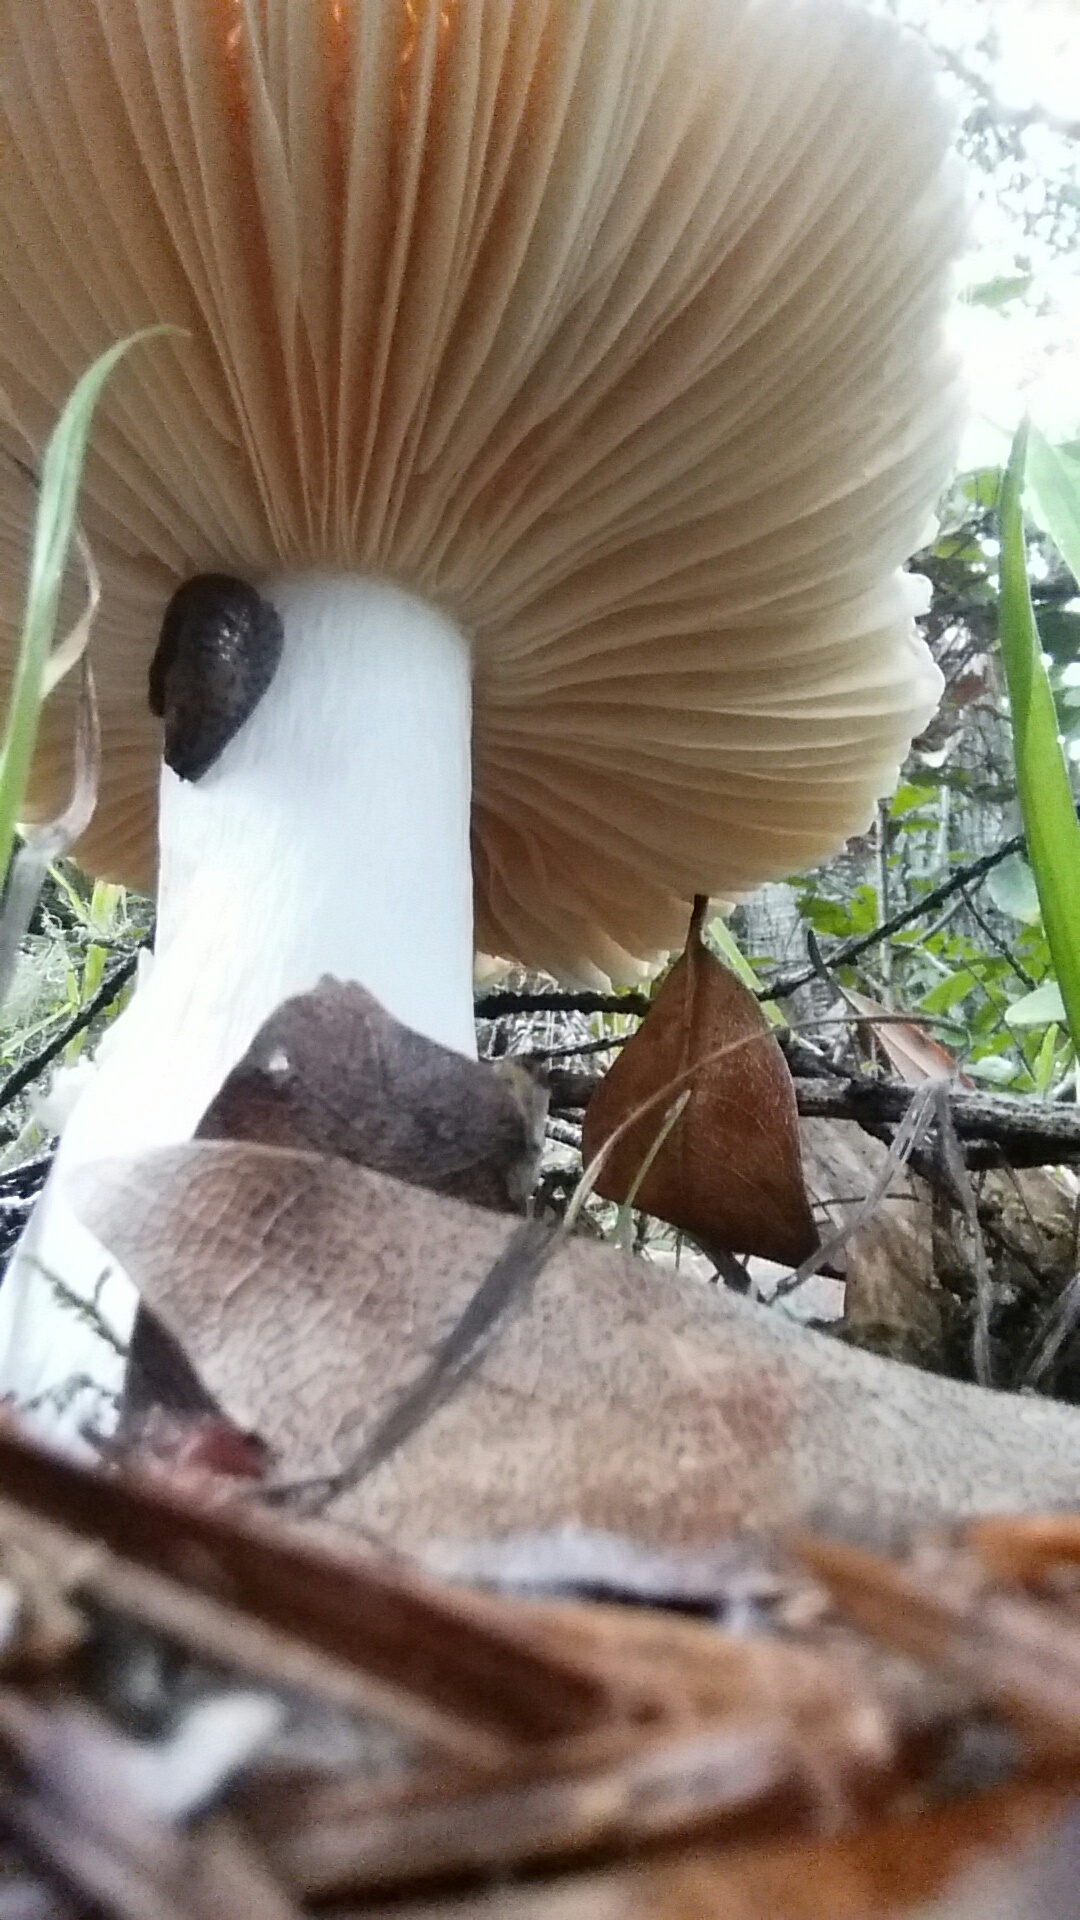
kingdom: Fungi
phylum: Basidiomycota
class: Agaricomycetes
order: Russulales
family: Russulaceae
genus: Russula
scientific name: Russula xerampelina
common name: Crab brittlegill
